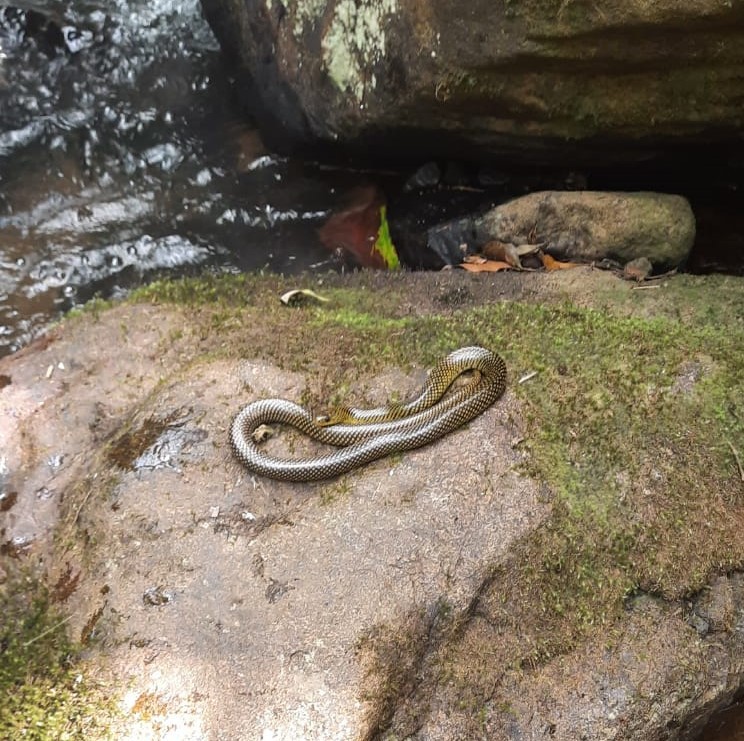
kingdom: Animalia
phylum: Chordata
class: Squamata
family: Colubridae
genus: Erythrolamprus
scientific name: Erythrolamprus miliaris
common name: Military ground snake
